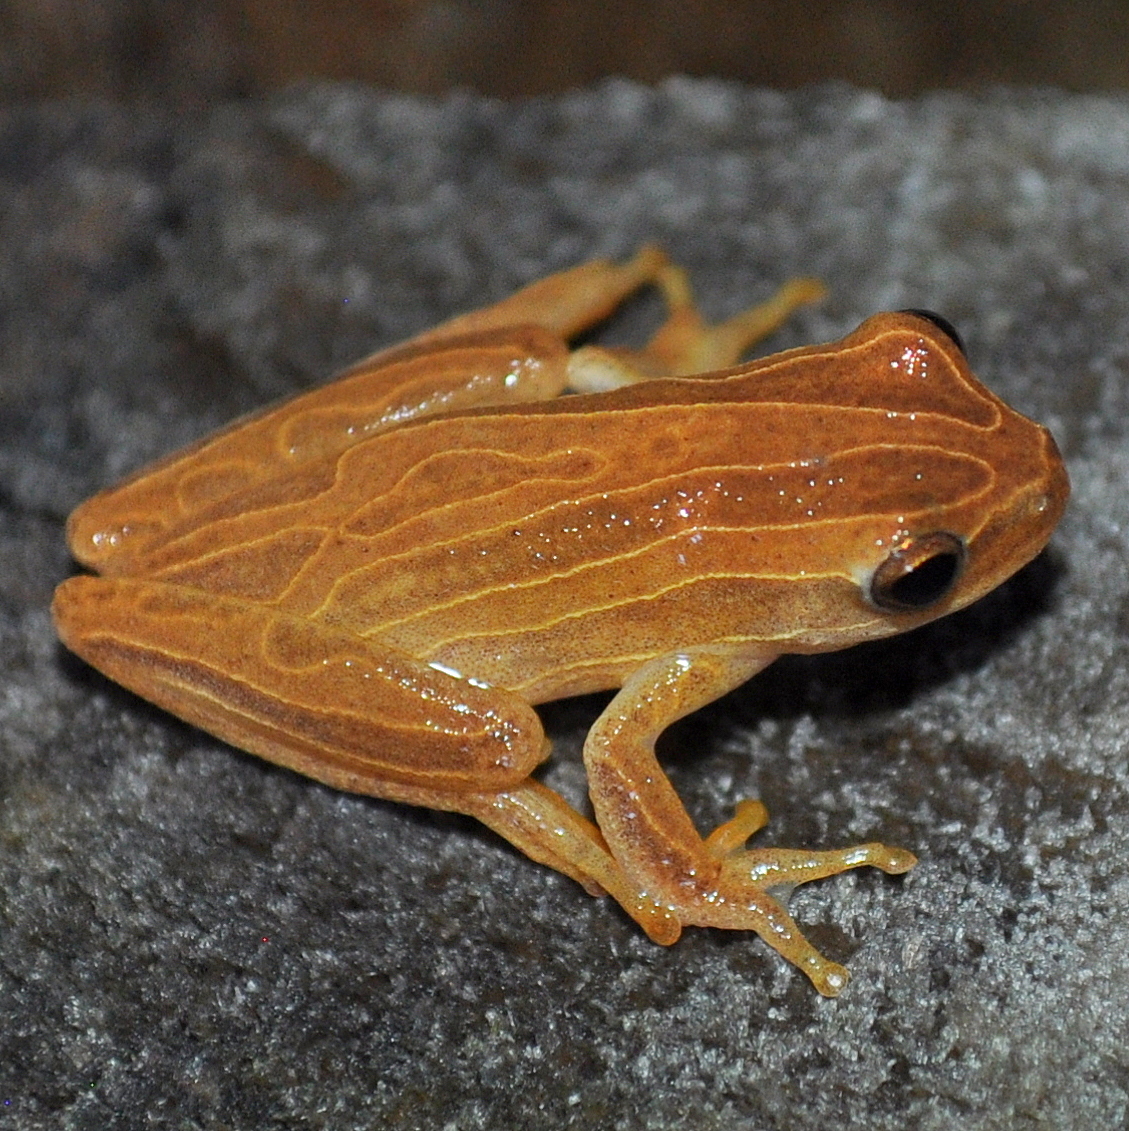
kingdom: Animalia
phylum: Chordata
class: Amphibia
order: Anura
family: Hylidae
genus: Dendropsophus
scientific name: Dendropsophus minutus
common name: Lesser treefrog
